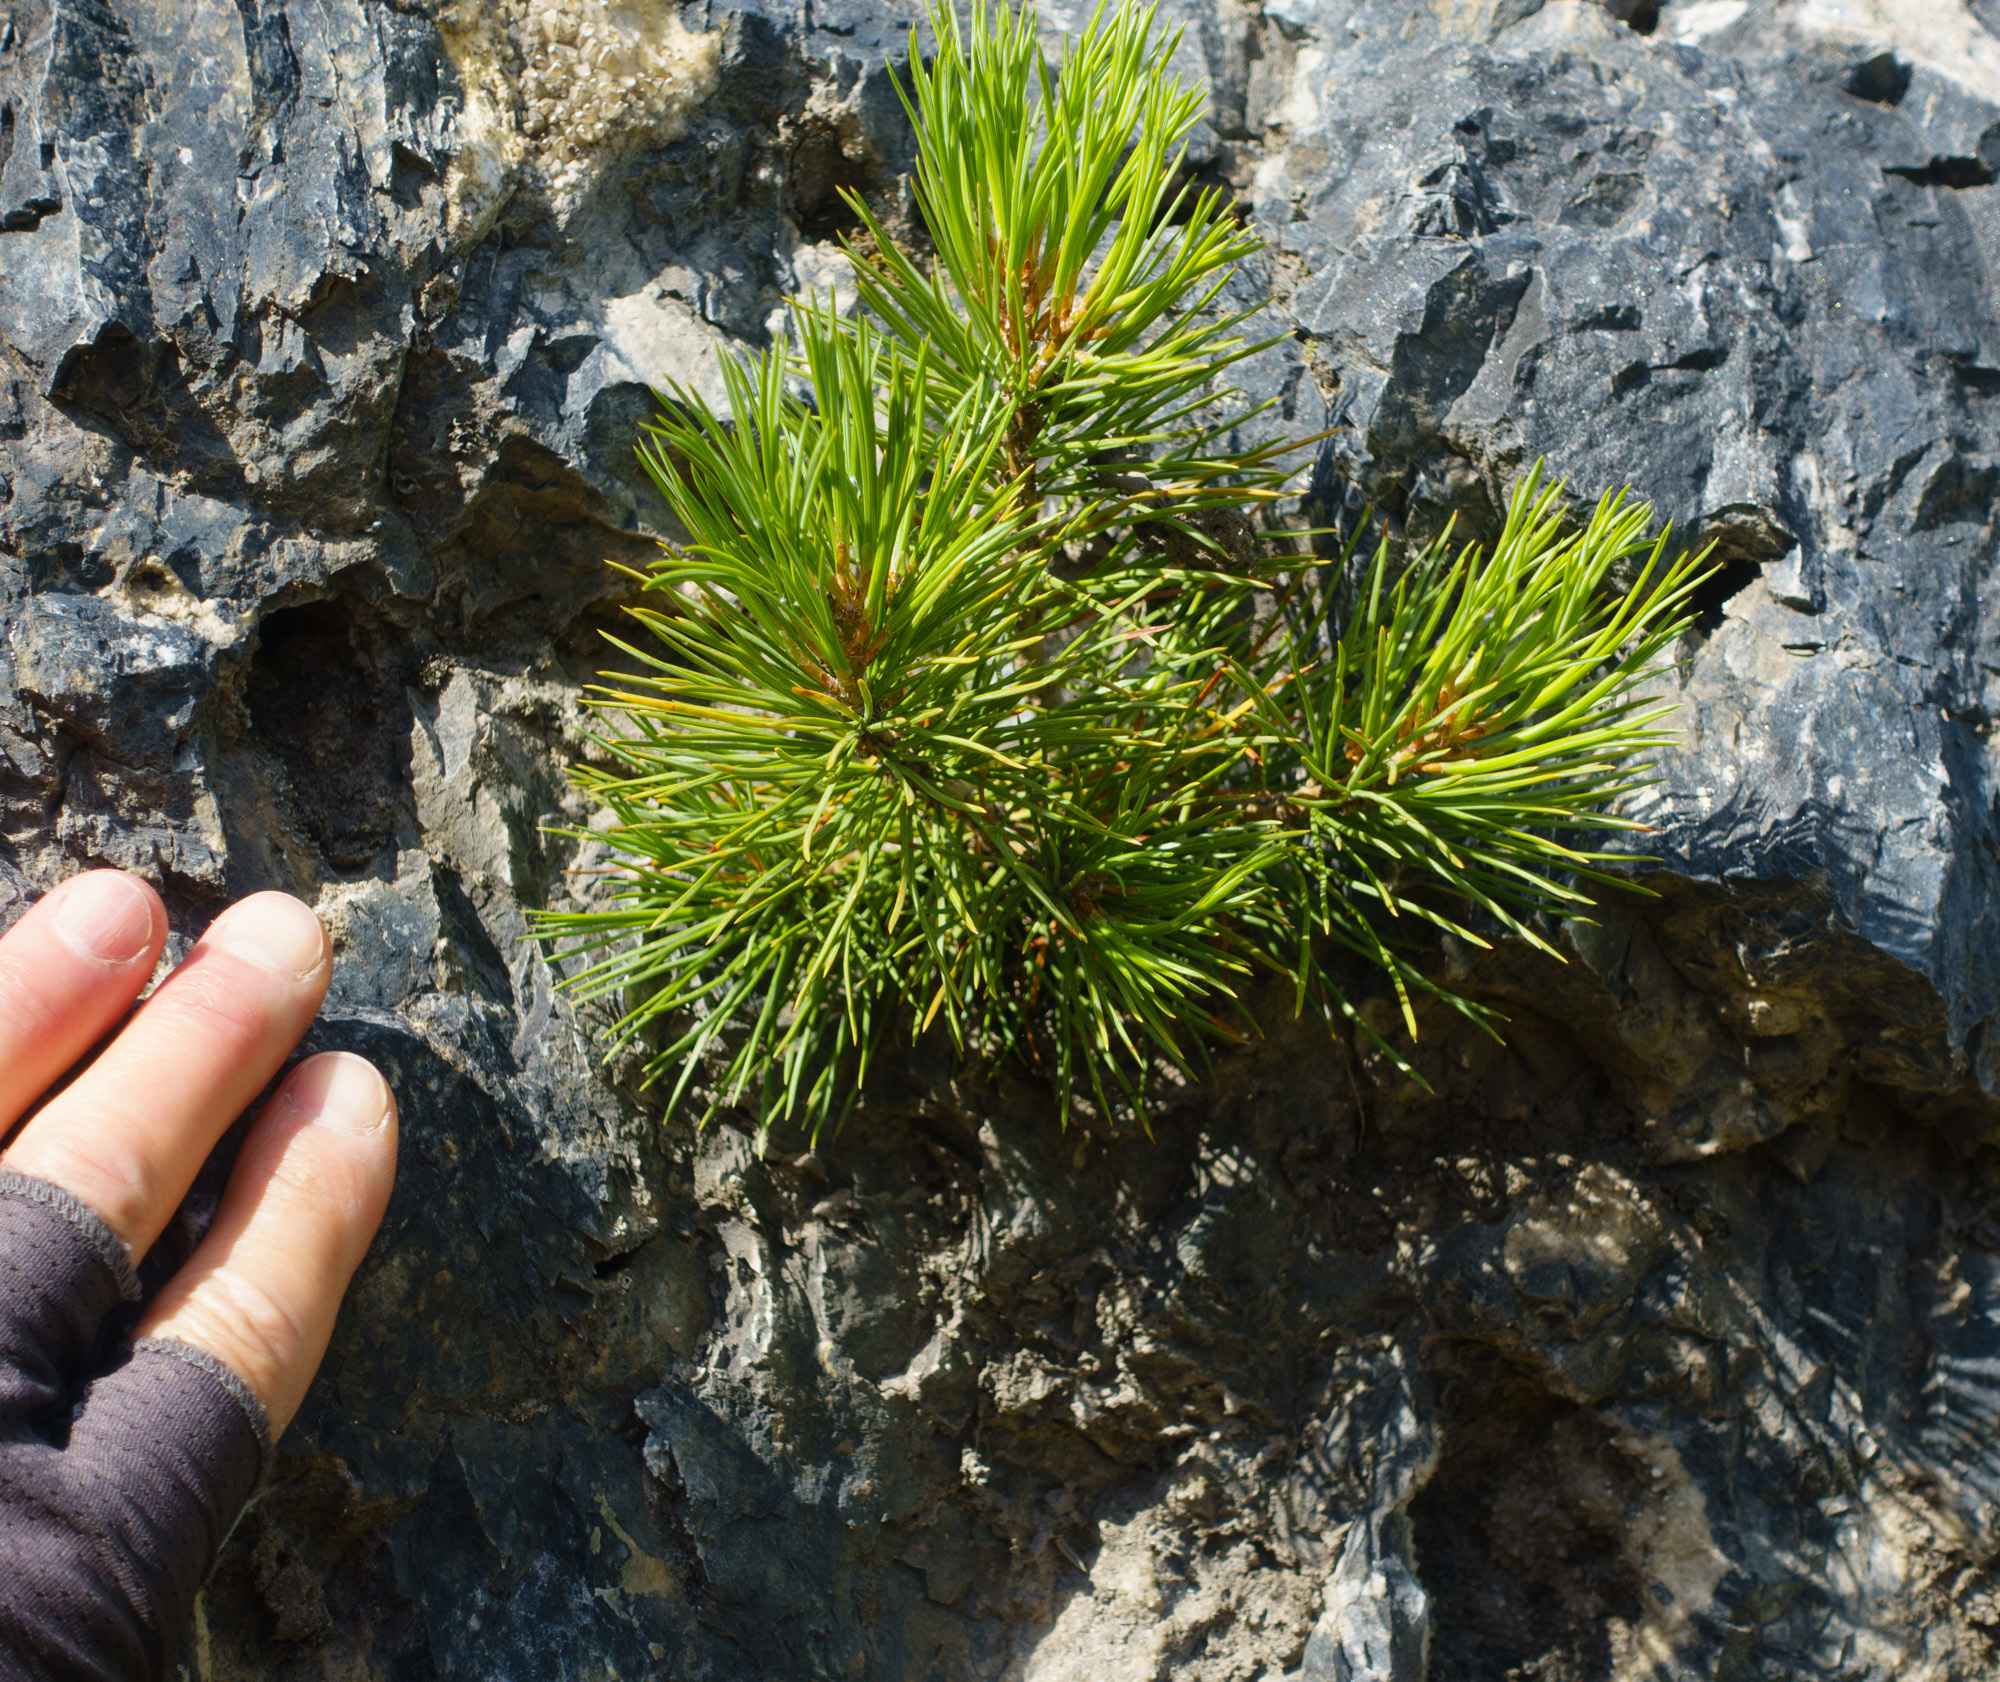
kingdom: Plantae
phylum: Tracheophyta
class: Pinopsida
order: Pinales
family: Pinaceae
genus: Pinus
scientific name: Pinus flexilis
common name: Limber pine
